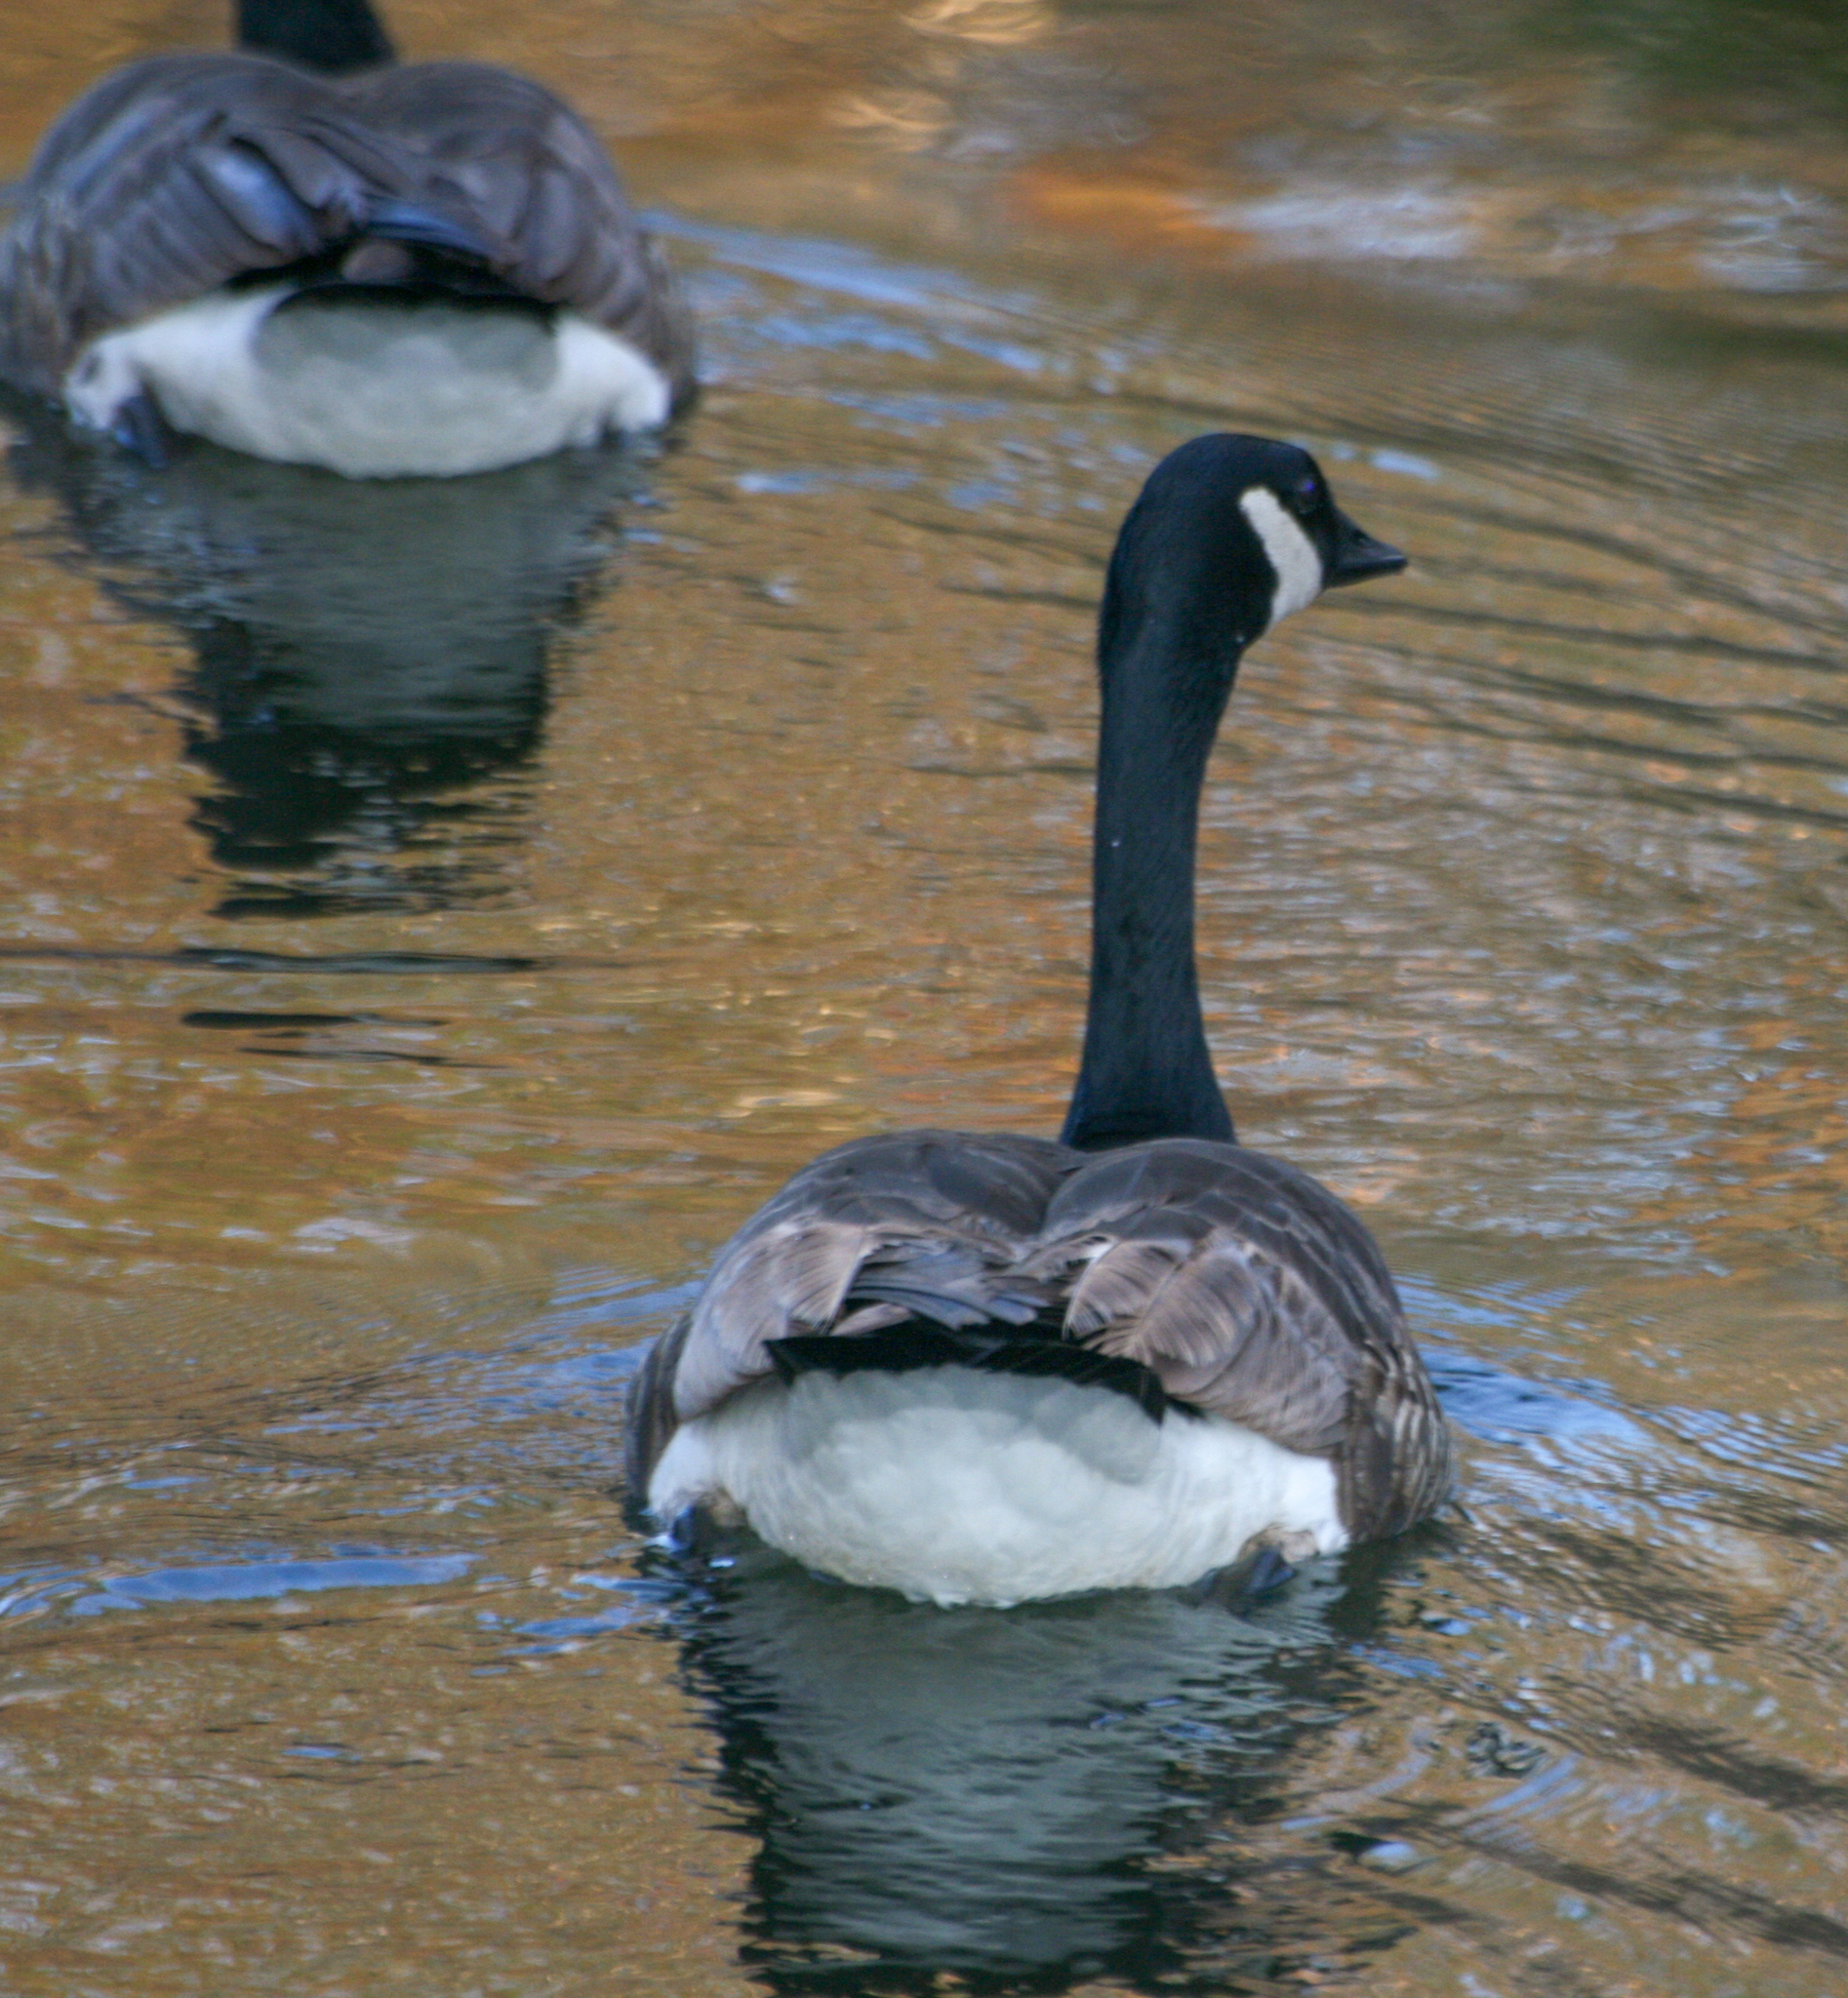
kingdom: Animalia
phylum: Chordata
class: Aves
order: Anseriformes
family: Anatidae
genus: Branta
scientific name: Branta canadensis
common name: Canada goose
